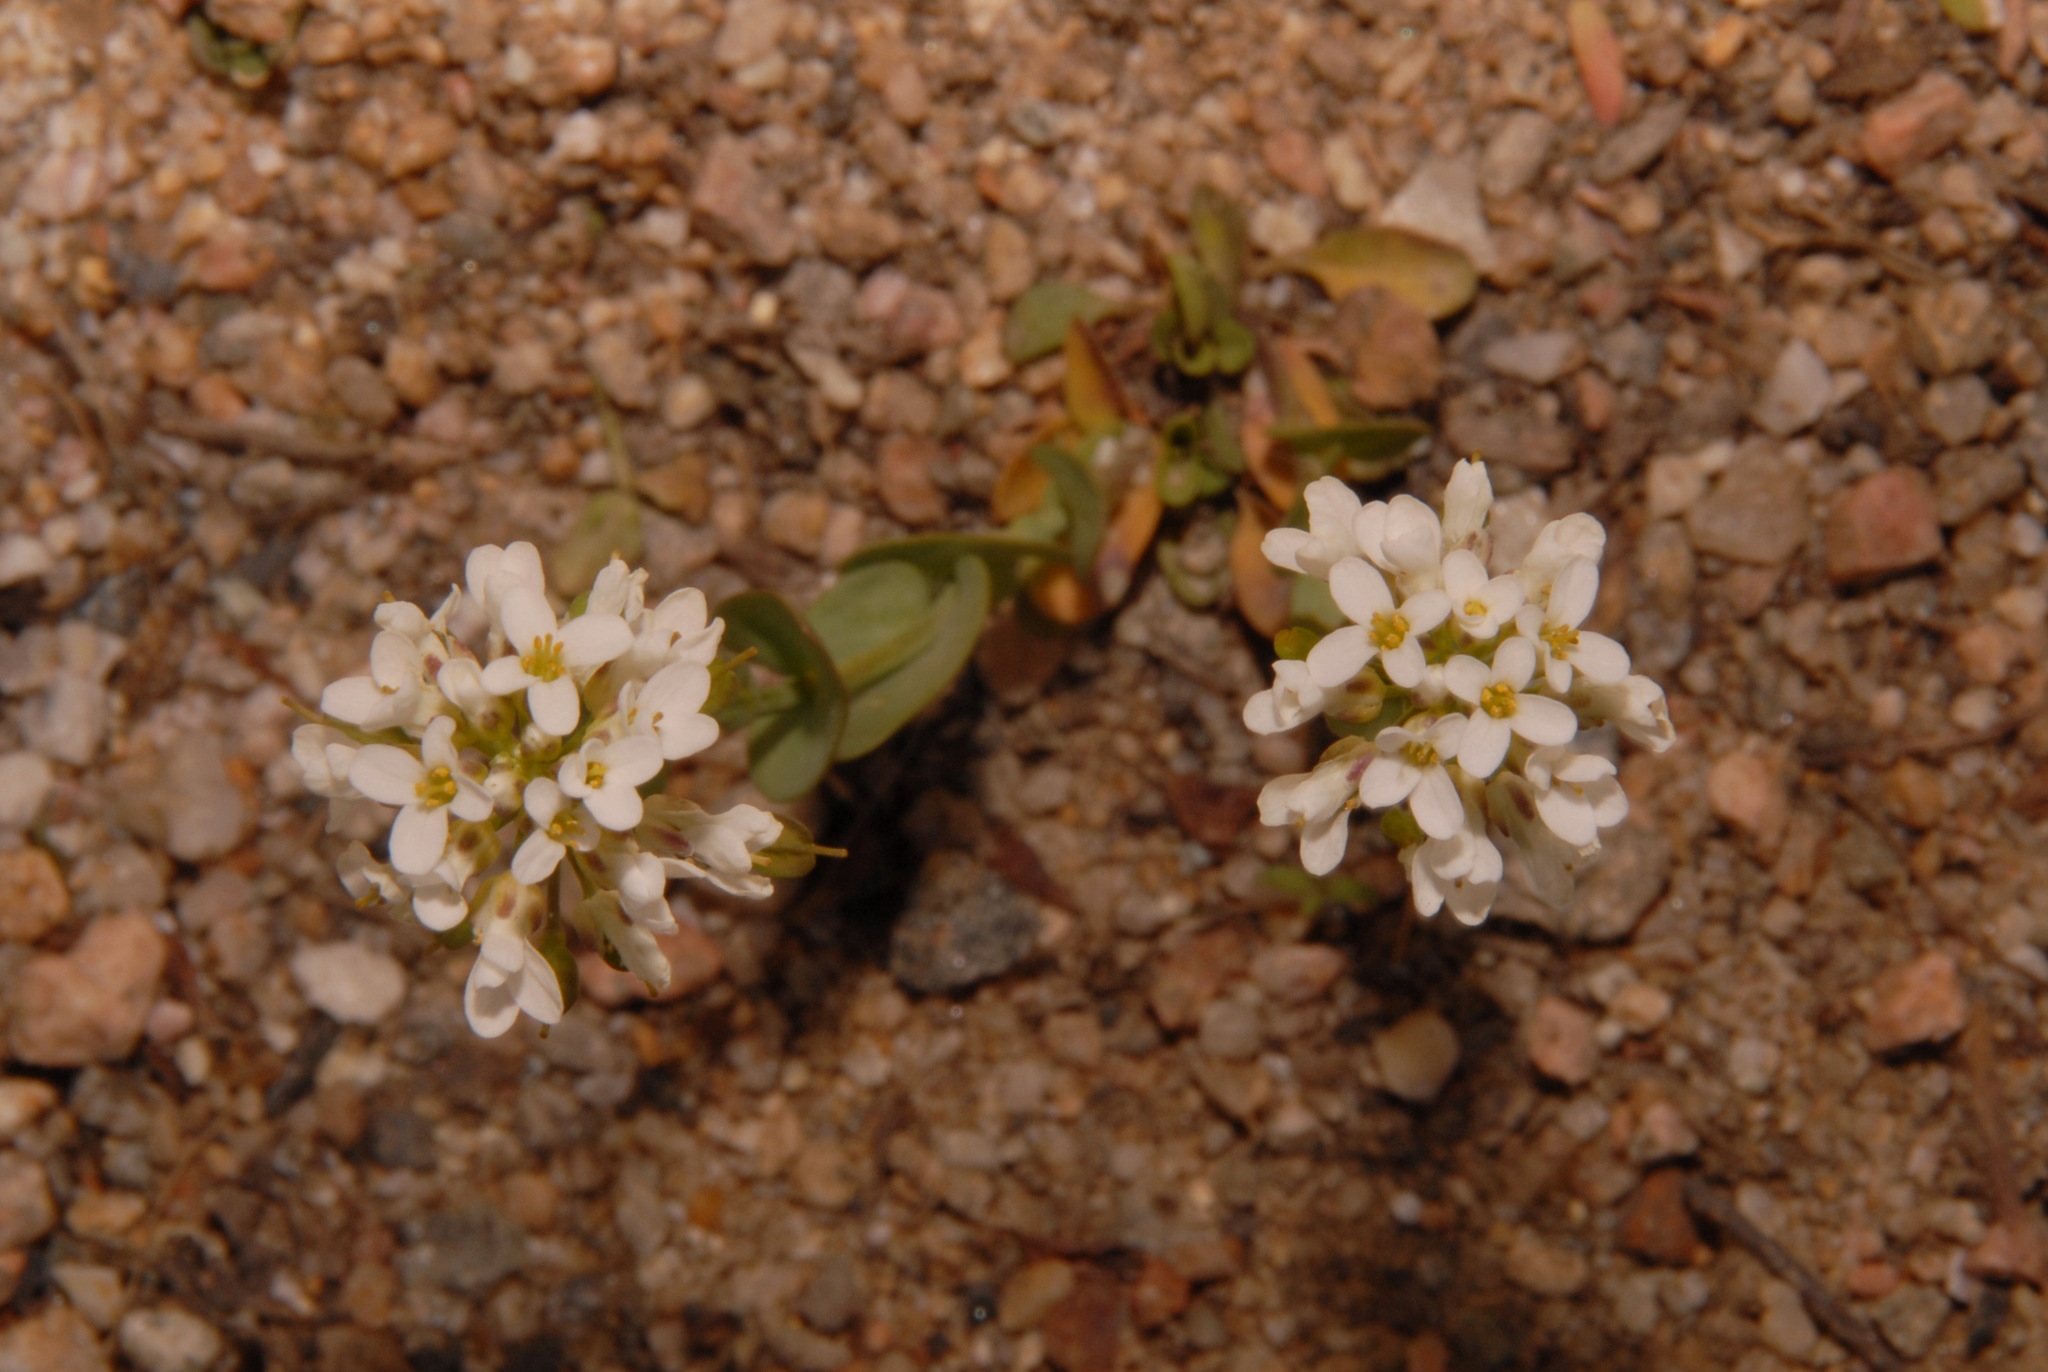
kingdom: Plantae
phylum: Tracheophyta
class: Magnoliopsida
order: Brassicales
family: Brassicaceae
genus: Noccaea
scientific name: Noccaea fendleri
